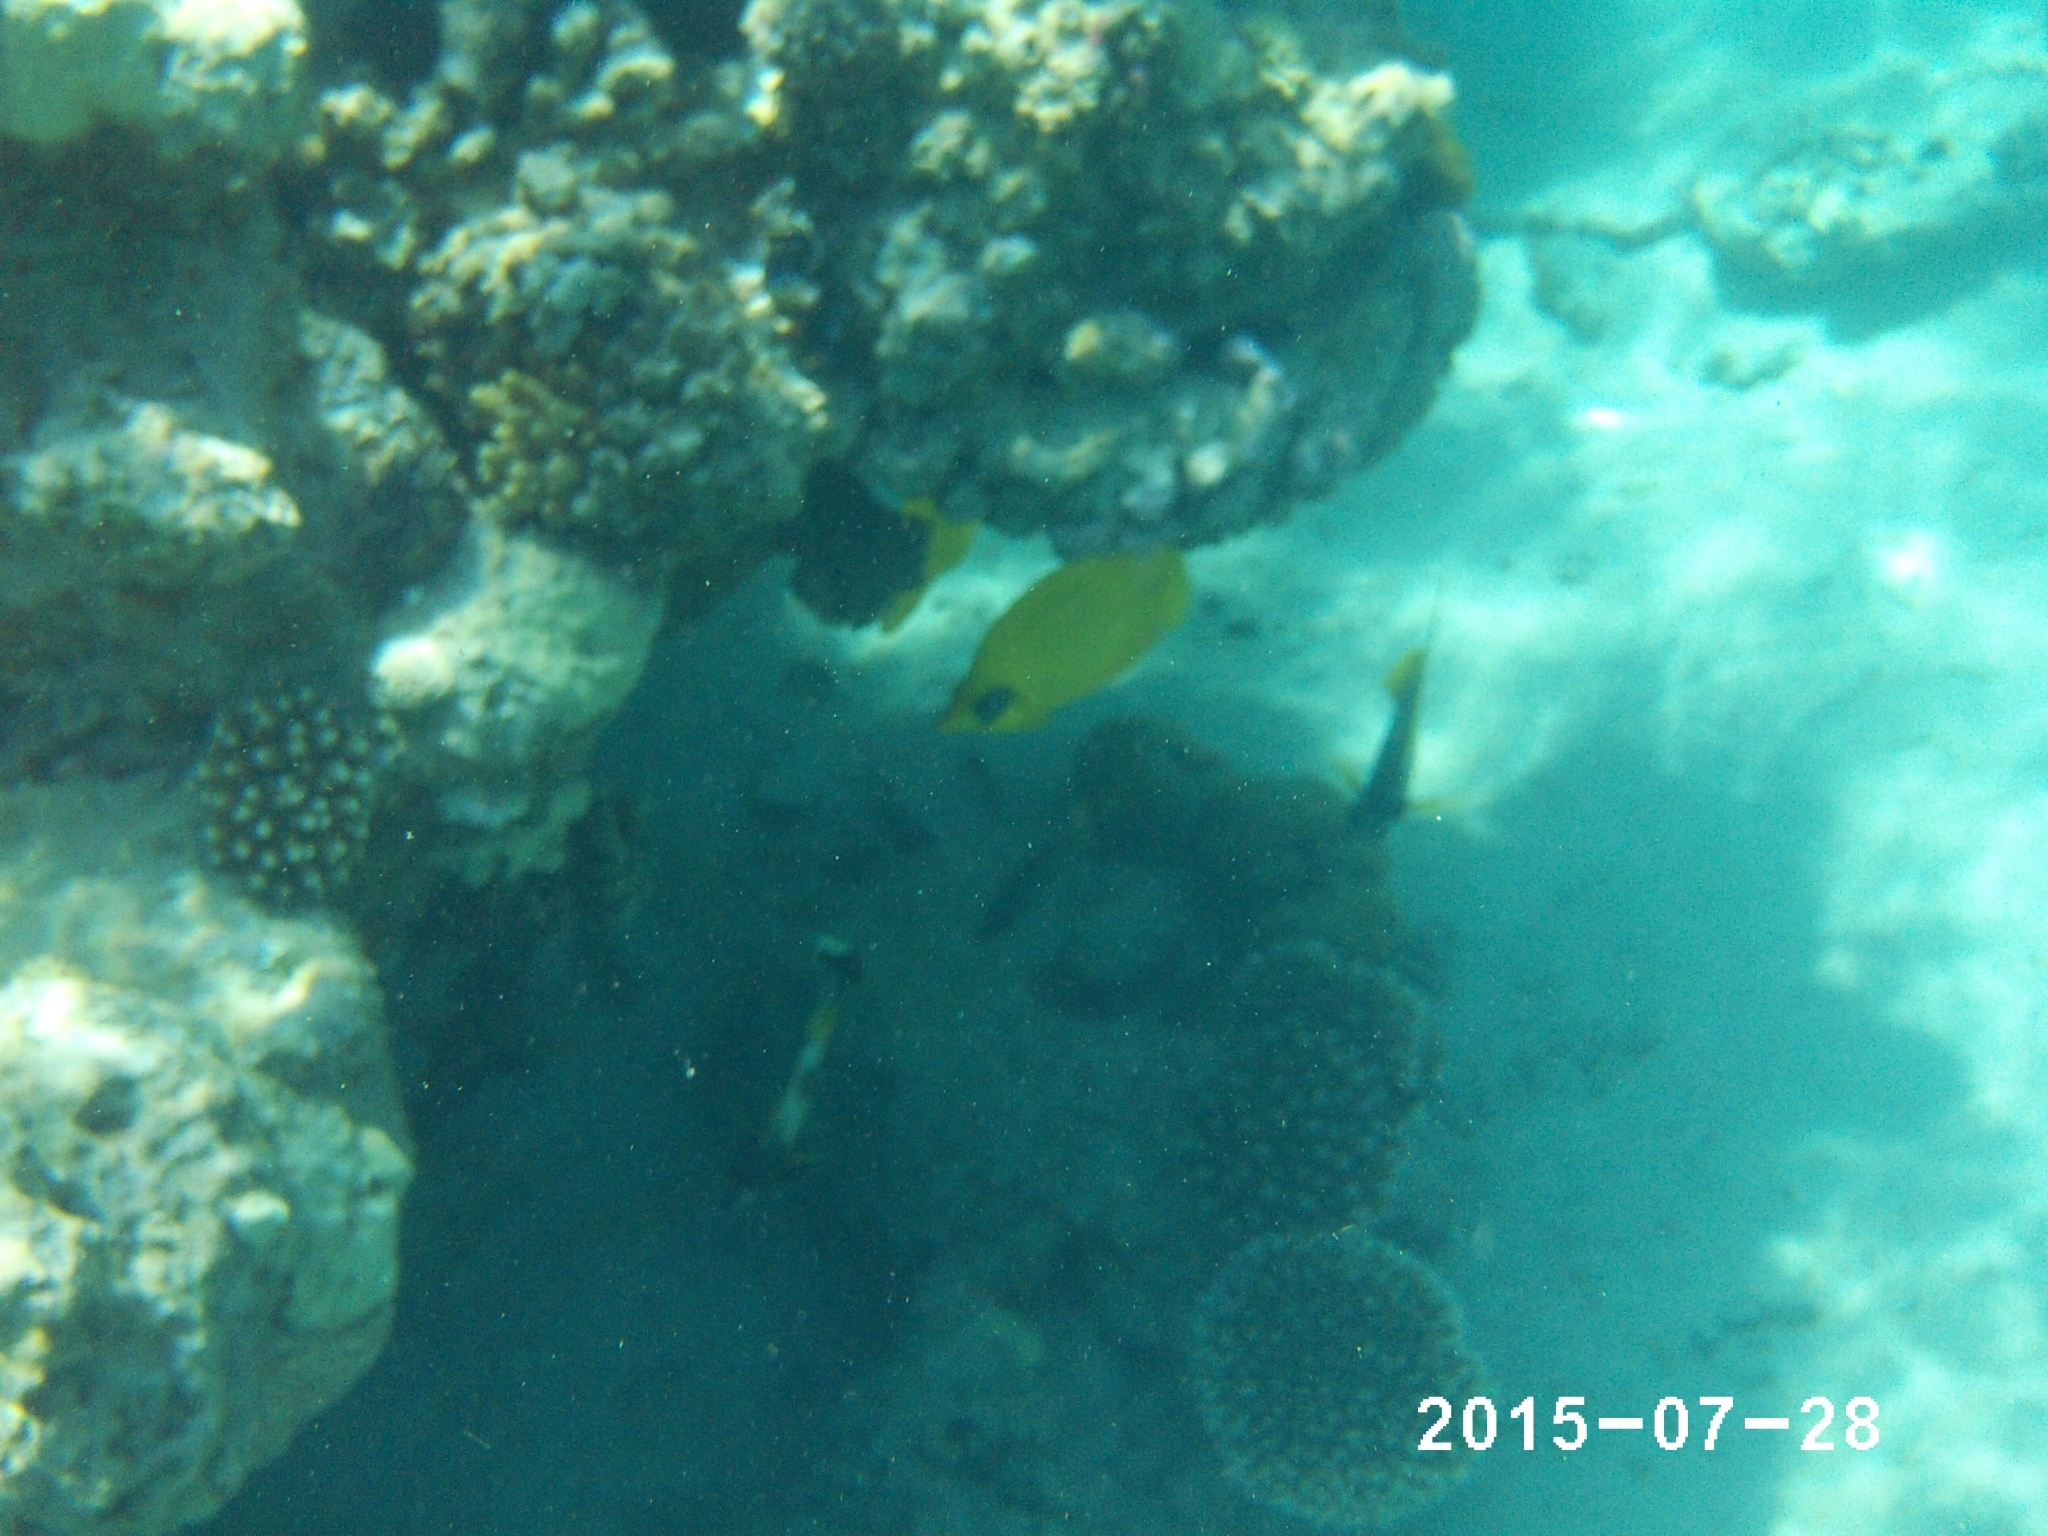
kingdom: Animalia
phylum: Chordata
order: Perciformes
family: Chaetodontidae
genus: Chaetodon
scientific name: Chaetodon semilarvatus
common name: Golden butterflyfish
